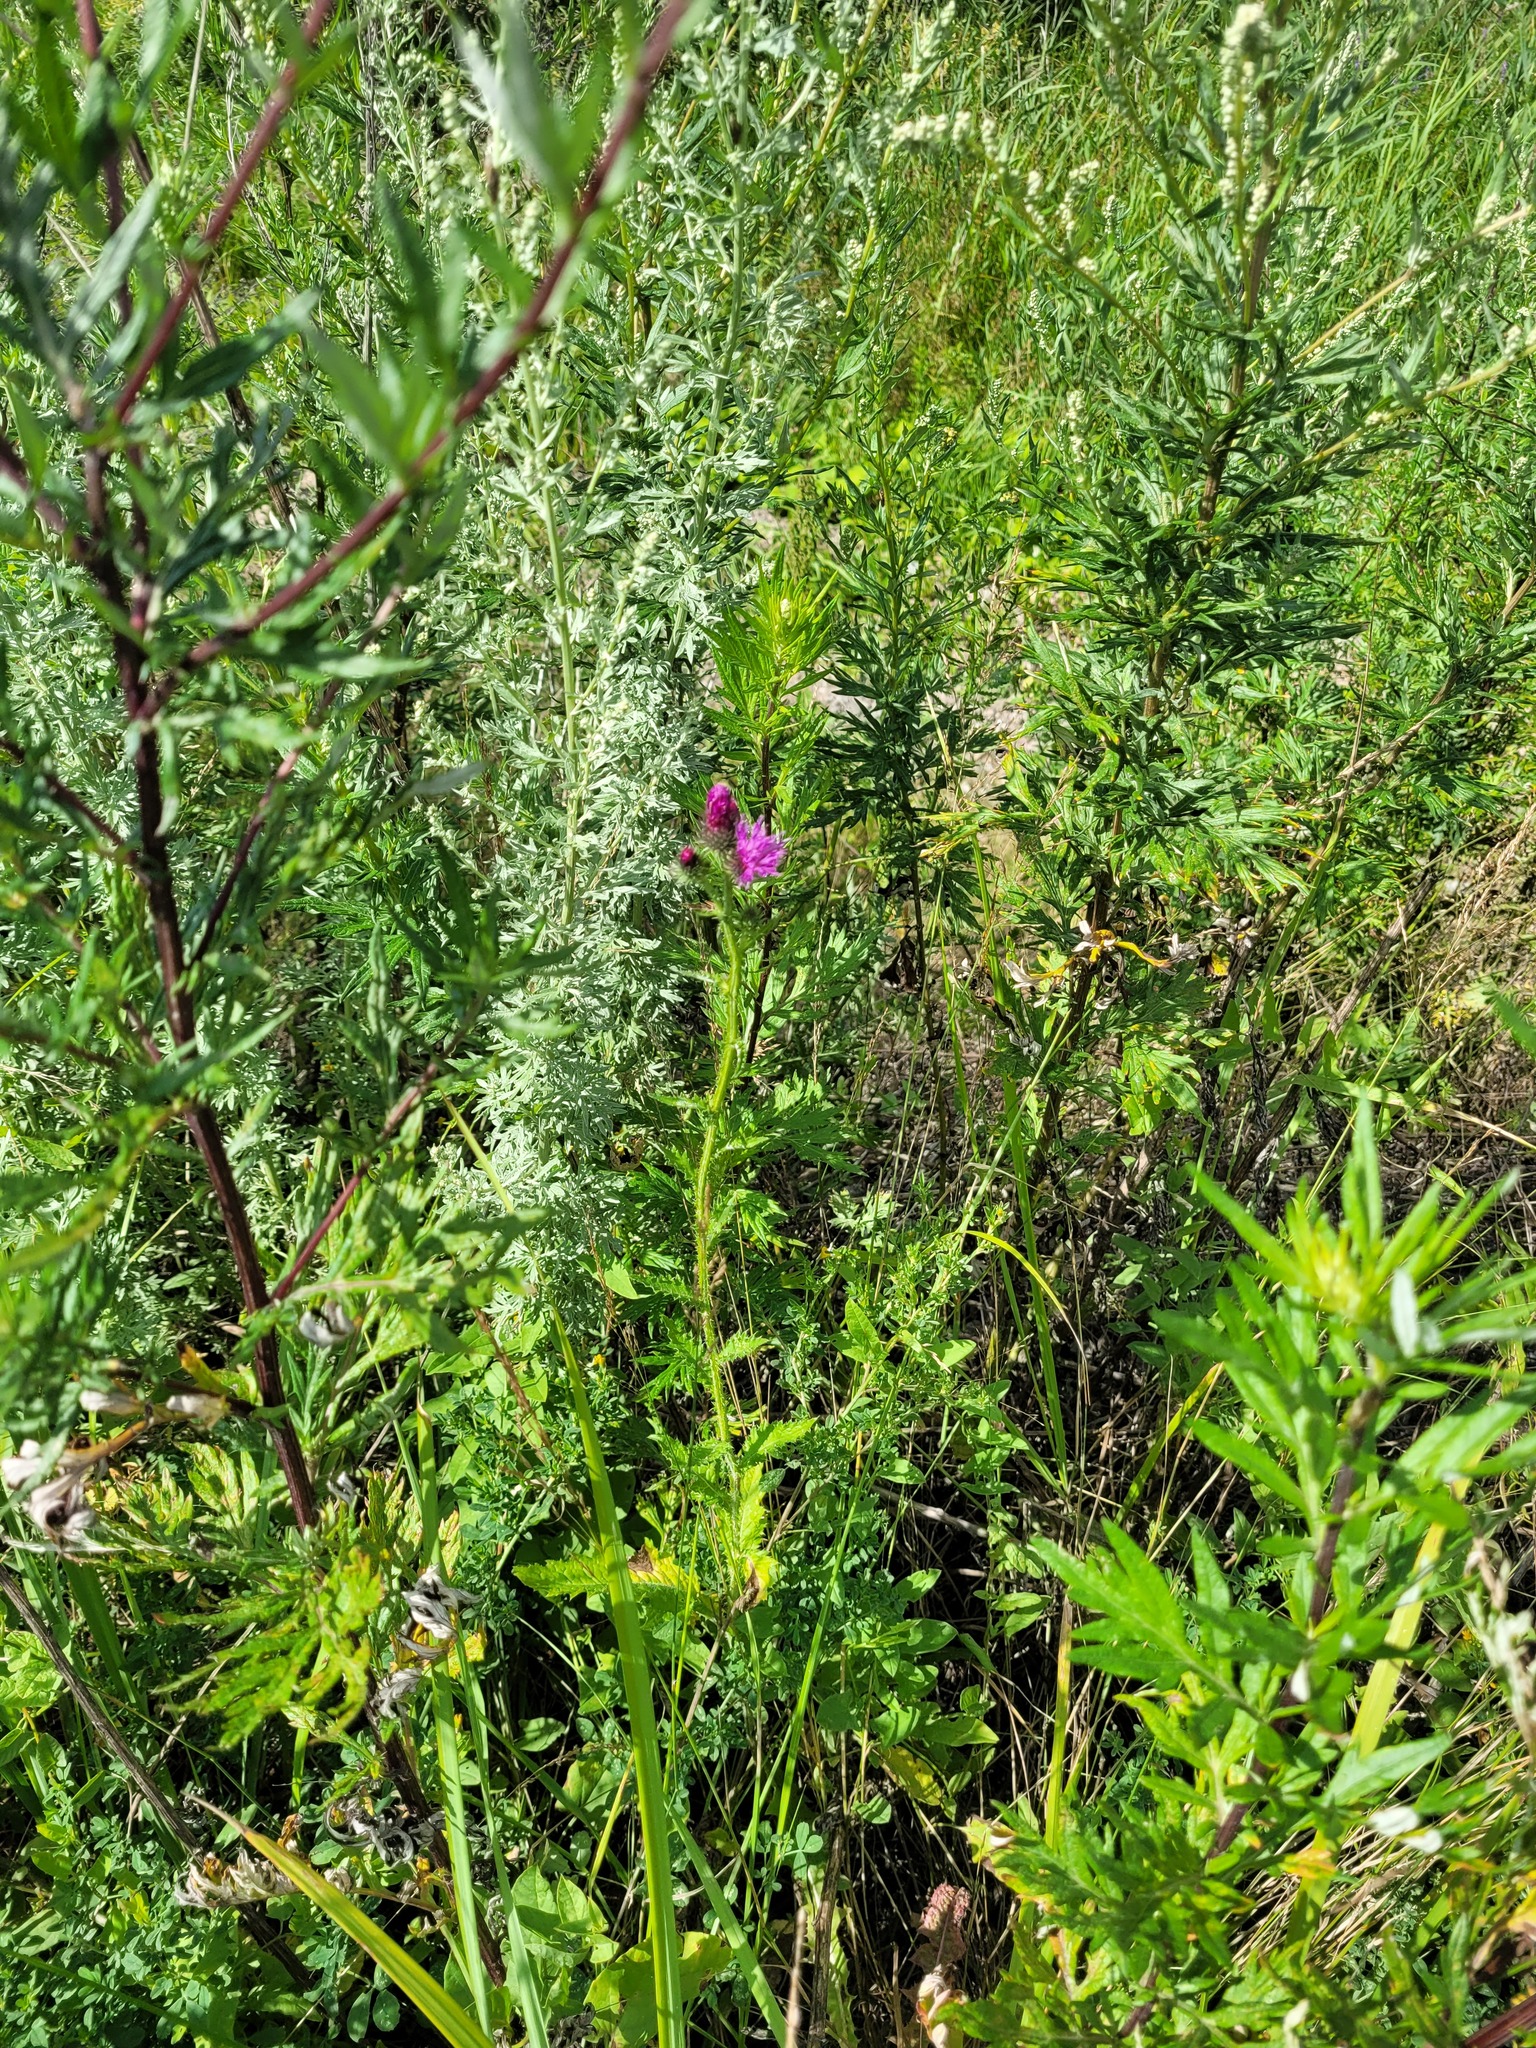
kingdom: Plantae
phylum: Tracheophyta
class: Magnoliopsida
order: Asterales
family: Asteraceae
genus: Carduus
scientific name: Carduus crispus
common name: Welted thistle
